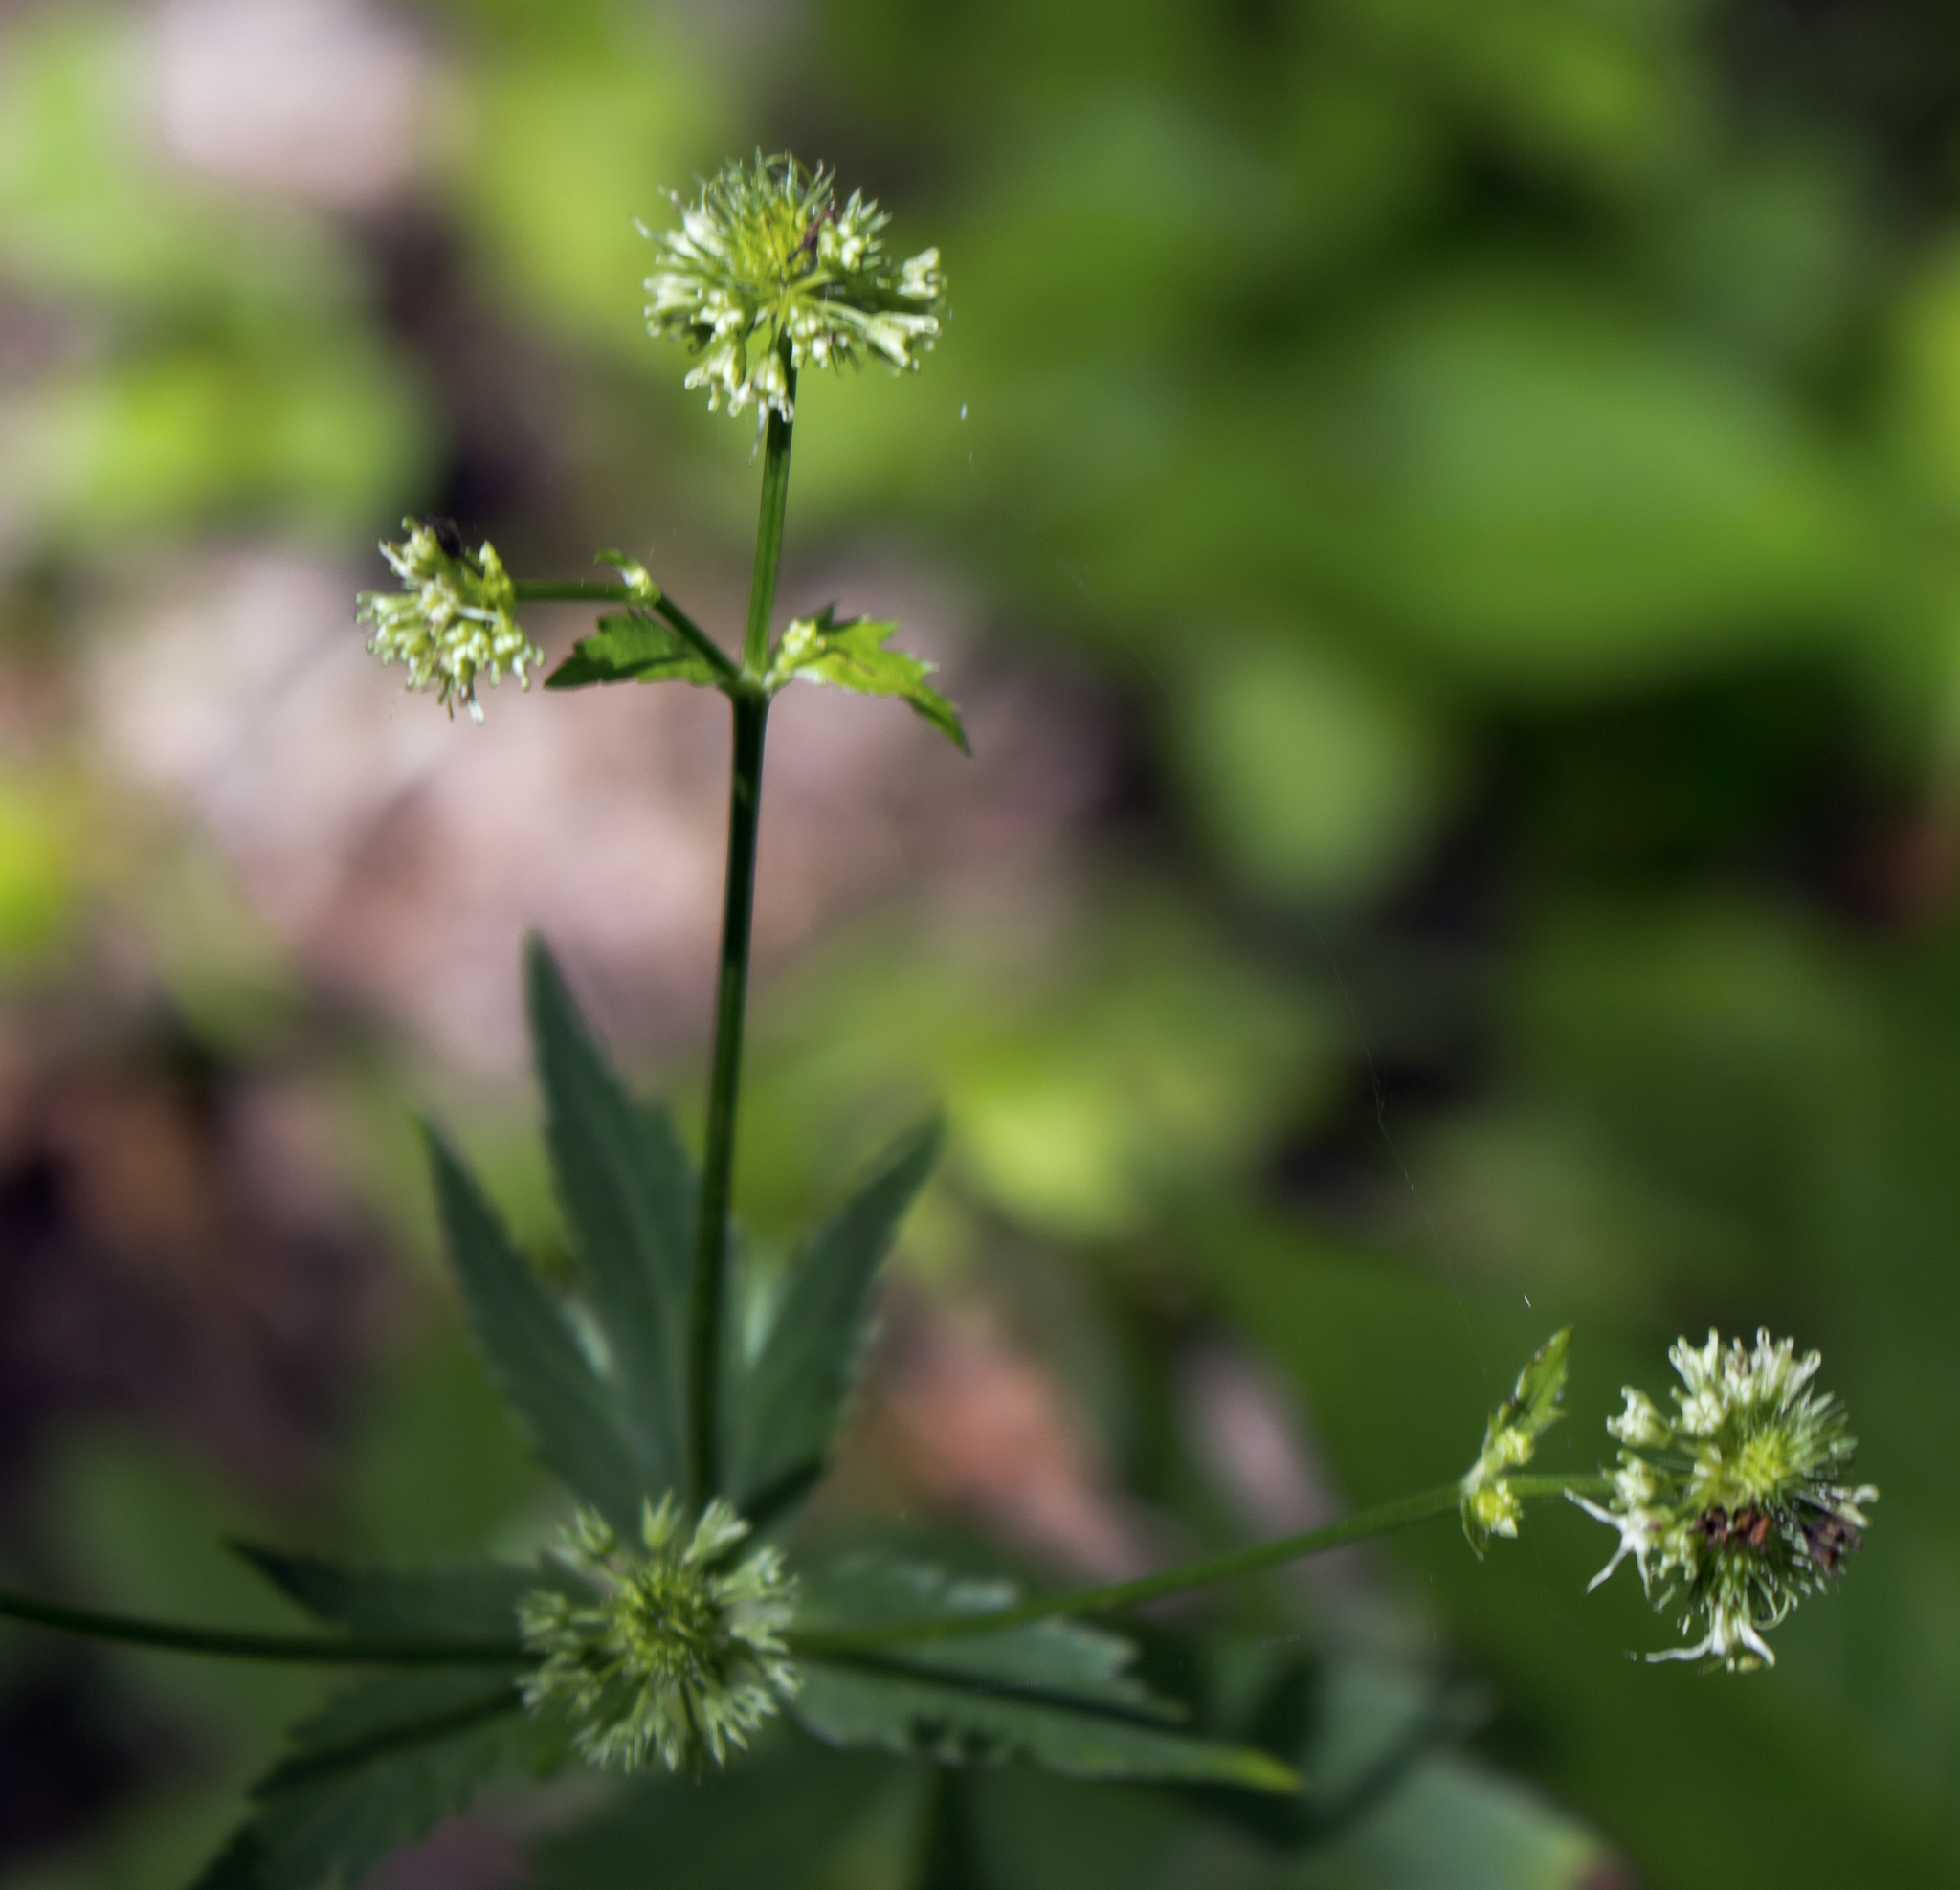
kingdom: Plantae
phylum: Tracheophyta
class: Magnoliopsida
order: Apiales
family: Apiaceae
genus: Sanicula
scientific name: Sanicula marilandica
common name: Black snakeroot
